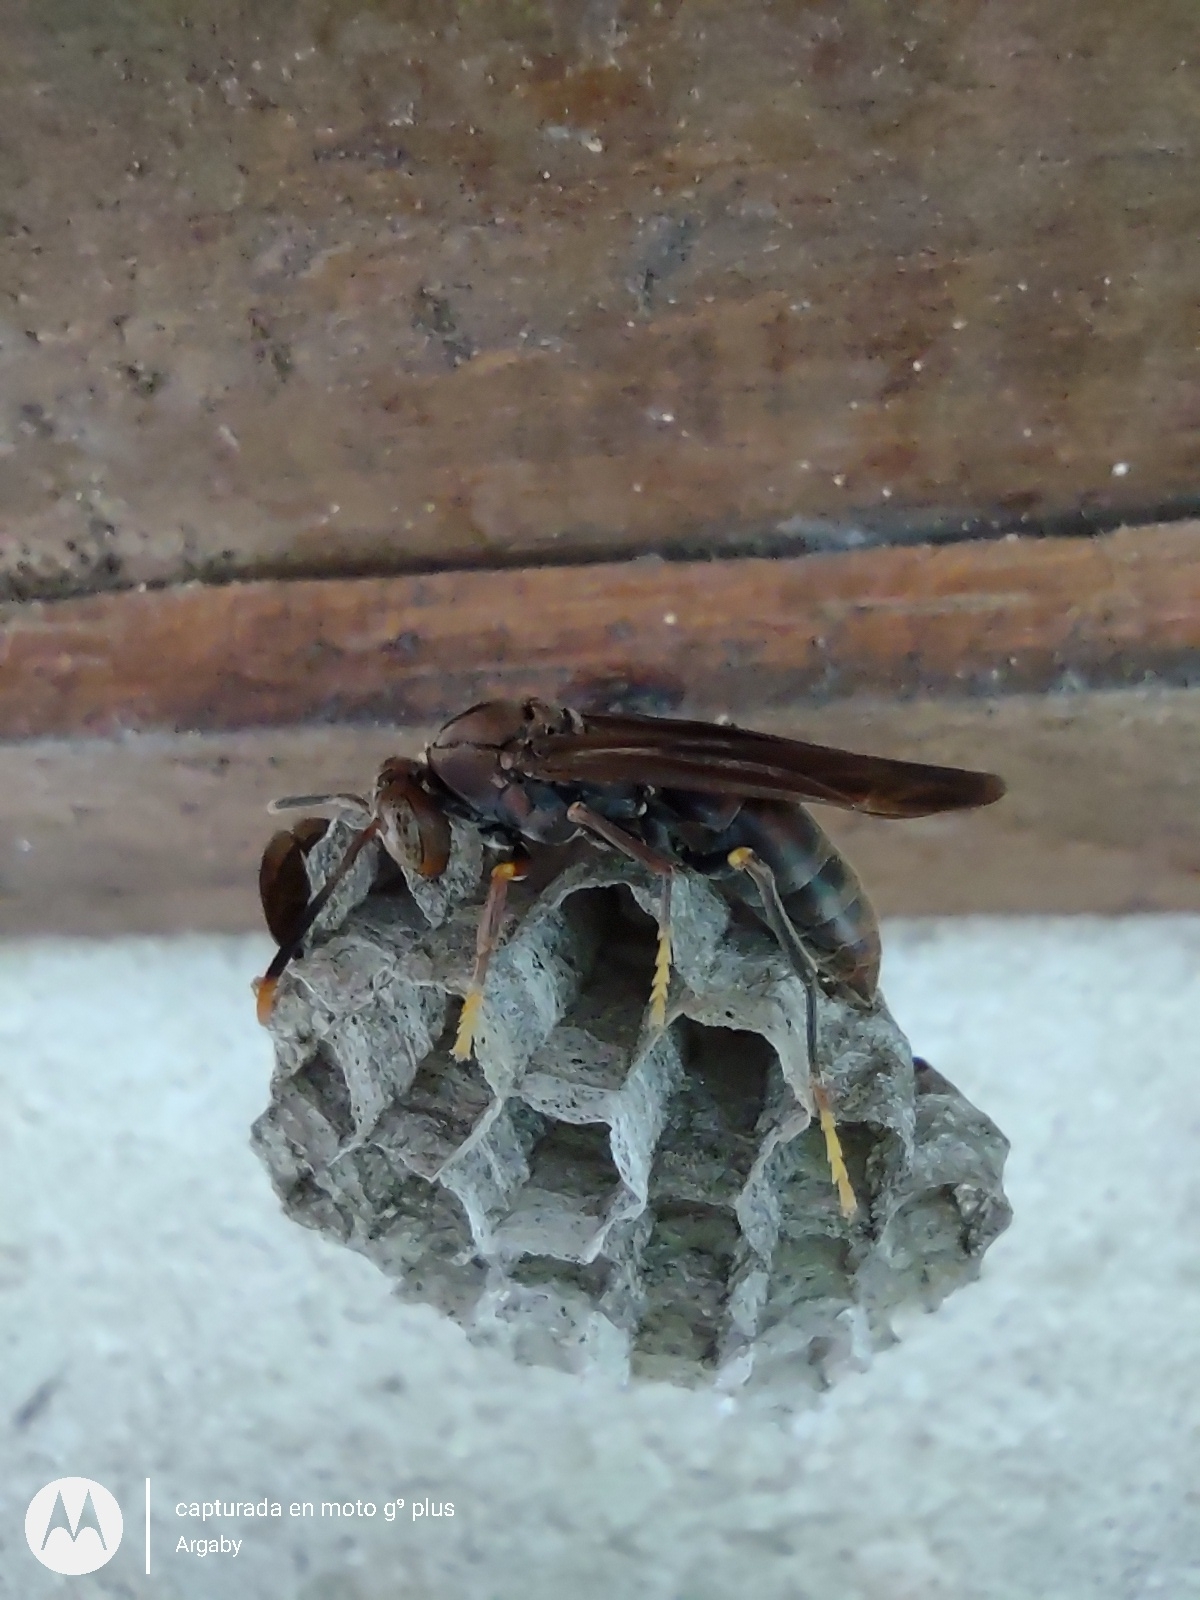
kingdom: Animalia
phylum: Arthropoda
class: Insecta
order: Hymenoptera
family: Pompilidae
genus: Aphanilopterus
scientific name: Aphanilopterus
